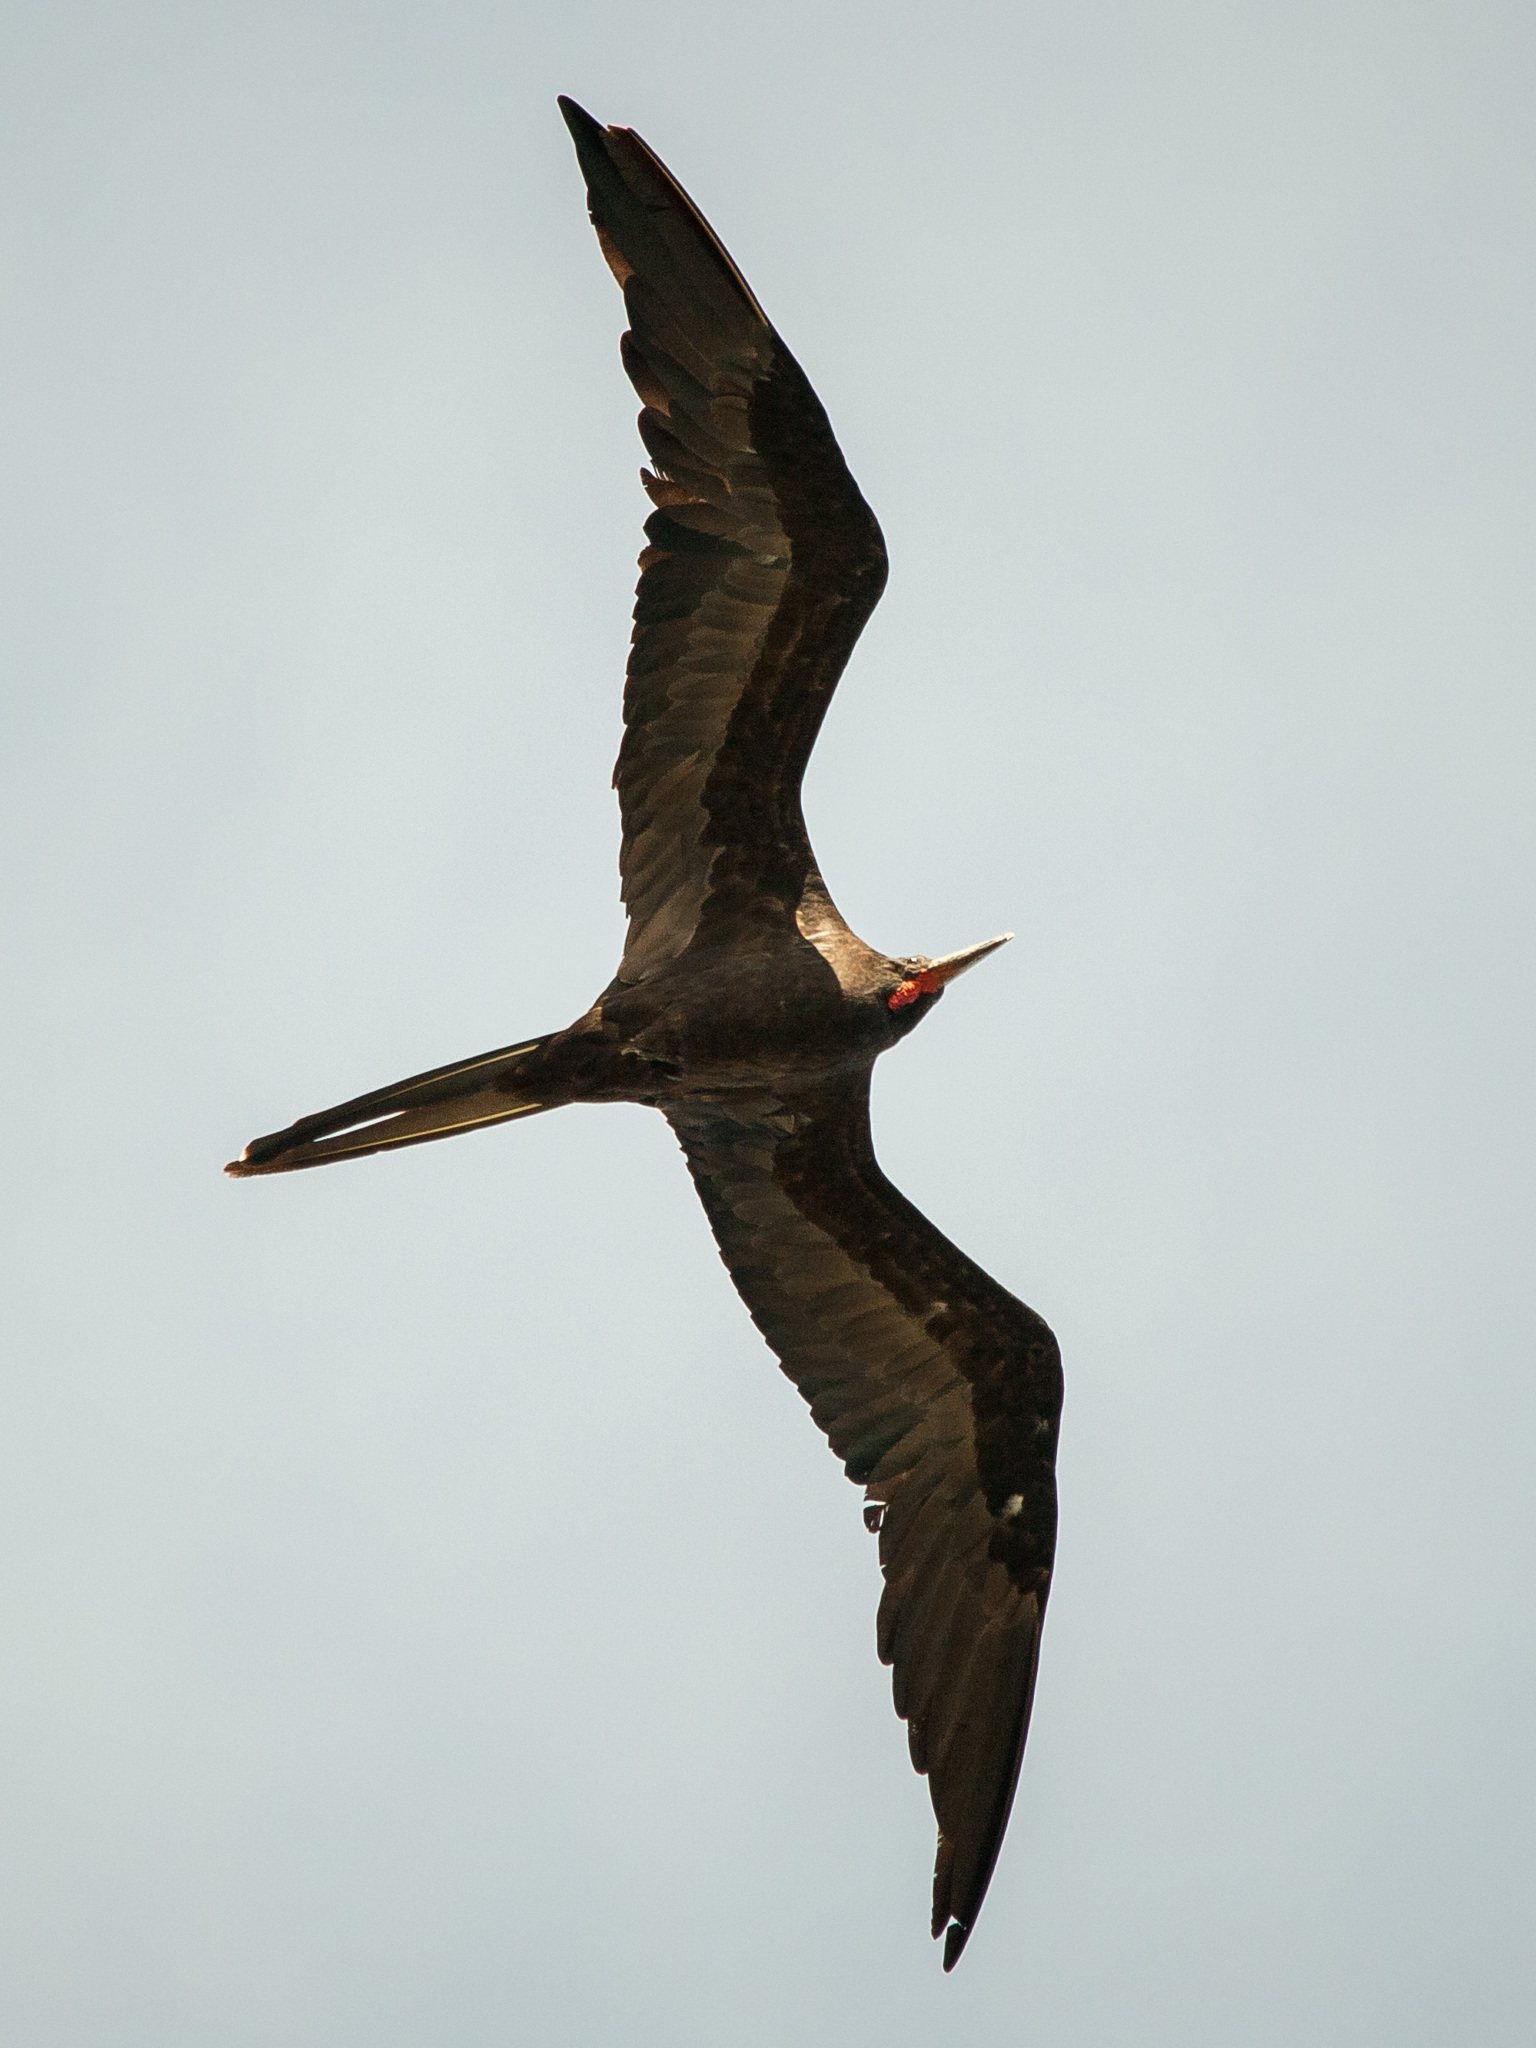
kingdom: Animalia
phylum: Chordata
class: Aves
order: Suliformes
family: Fregatidae
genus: Fregata
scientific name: Fregata magnificens
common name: Magnificent frigatebird
